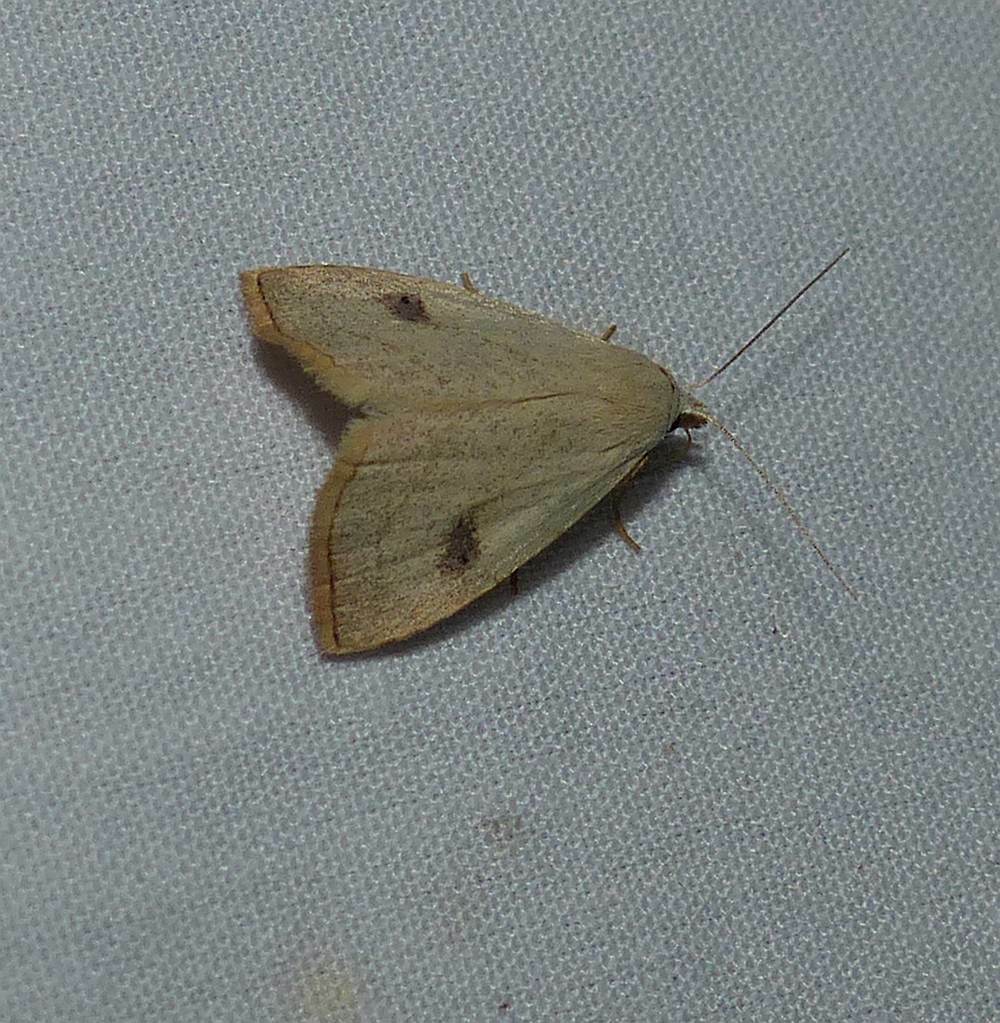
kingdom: Animalia
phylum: Arthropoda
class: Insecta
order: Lepidoptera
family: Erebidae
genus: Rivula
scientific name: Rivula propinqualis
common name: Spotted grass moth
